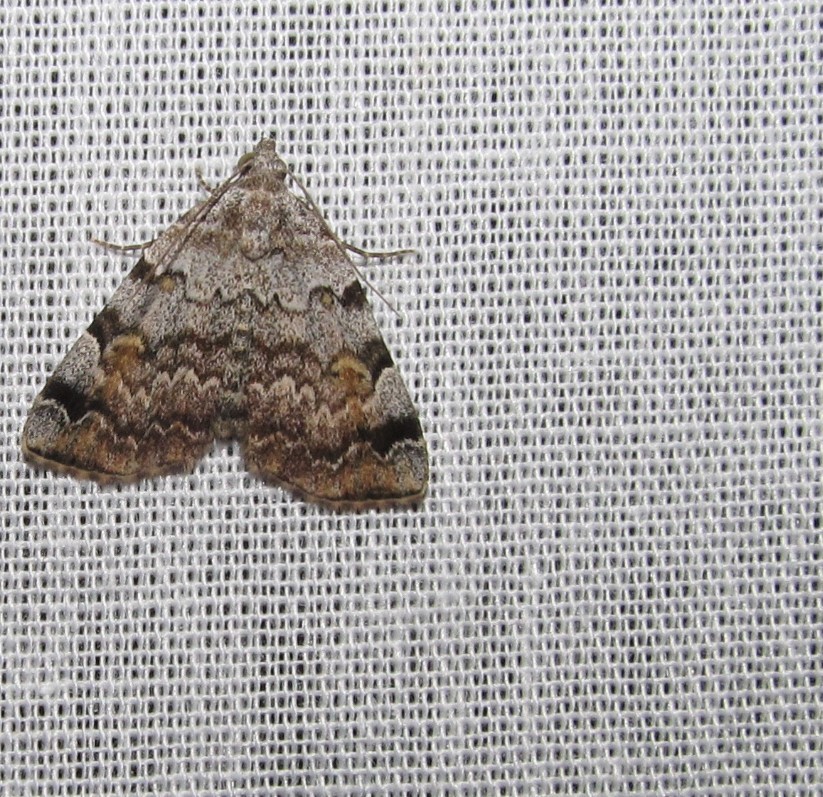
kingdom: Animalia
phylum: Arthropoda
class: Insecta
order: Lepidoptera
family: Erebidae
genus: Idia
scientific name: Idia americalis
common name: American idia moth
